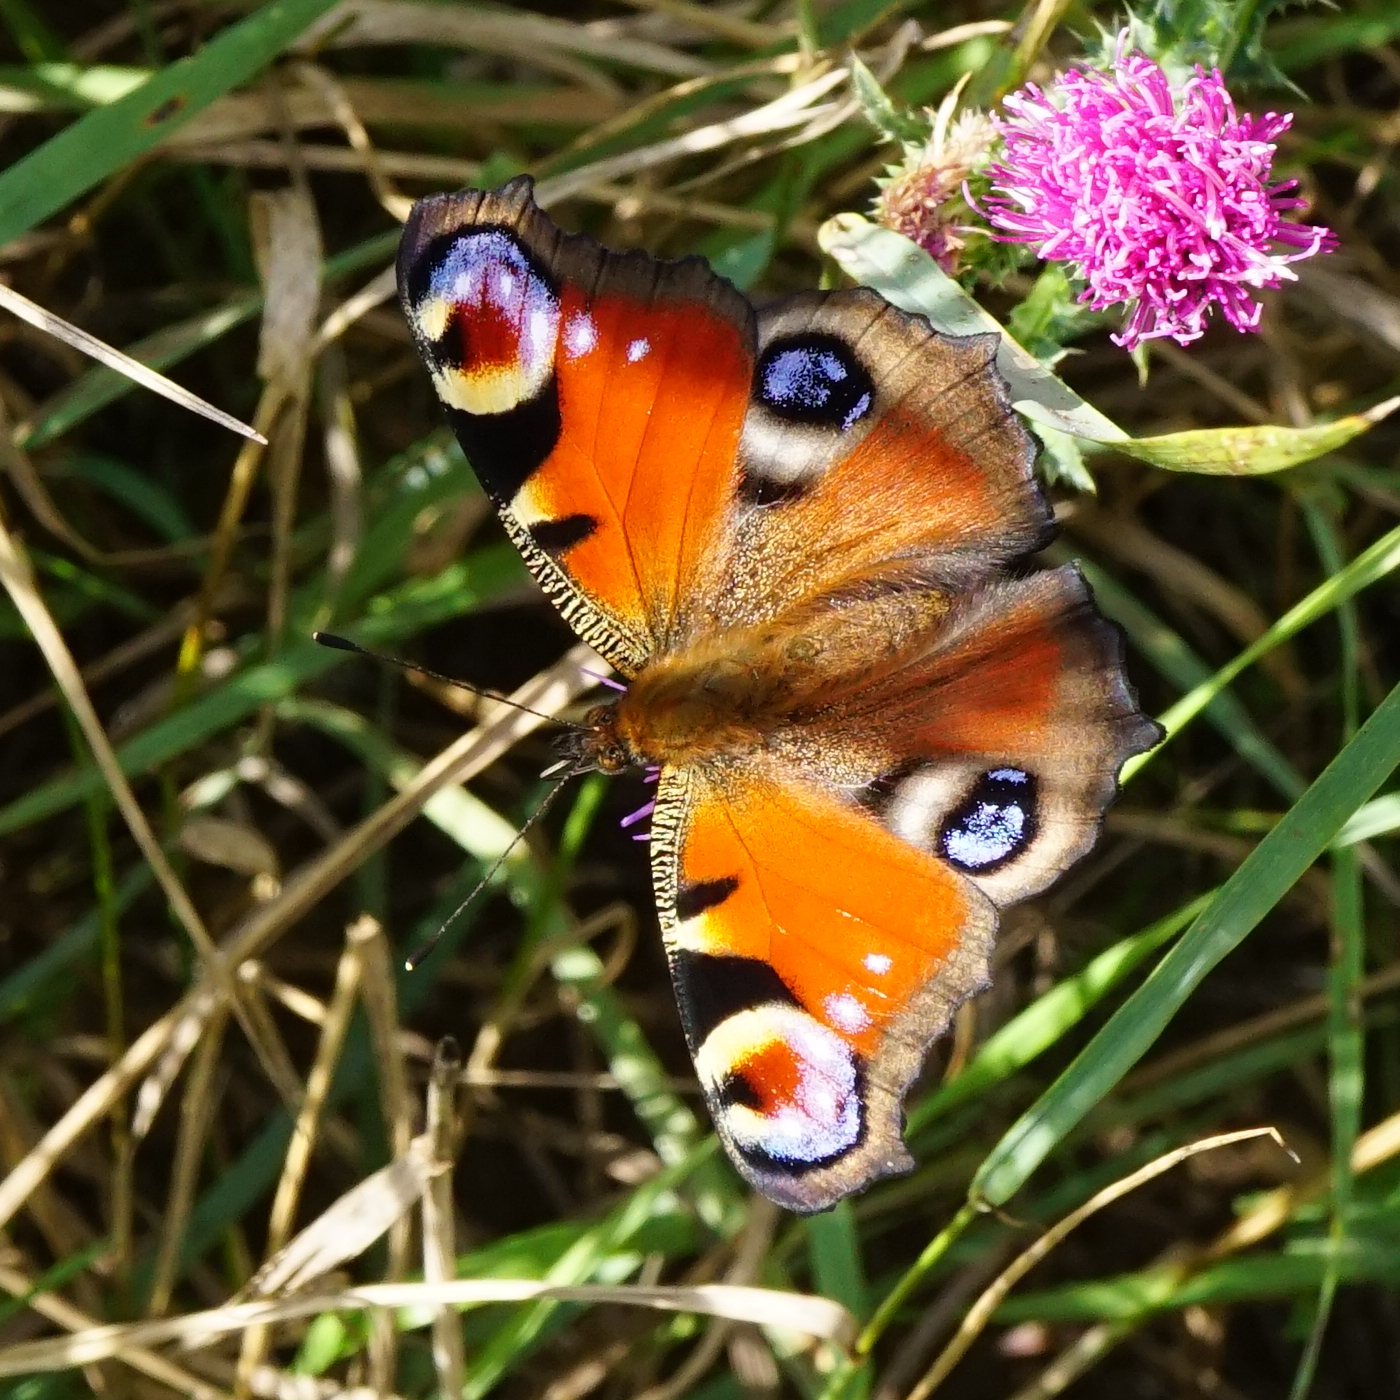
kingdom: Animalia
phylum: Arthropoda
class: Insecta
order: Lepidoptera
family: Nymphalidae
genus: Aglais
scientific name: Aglais io
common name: Peacock
